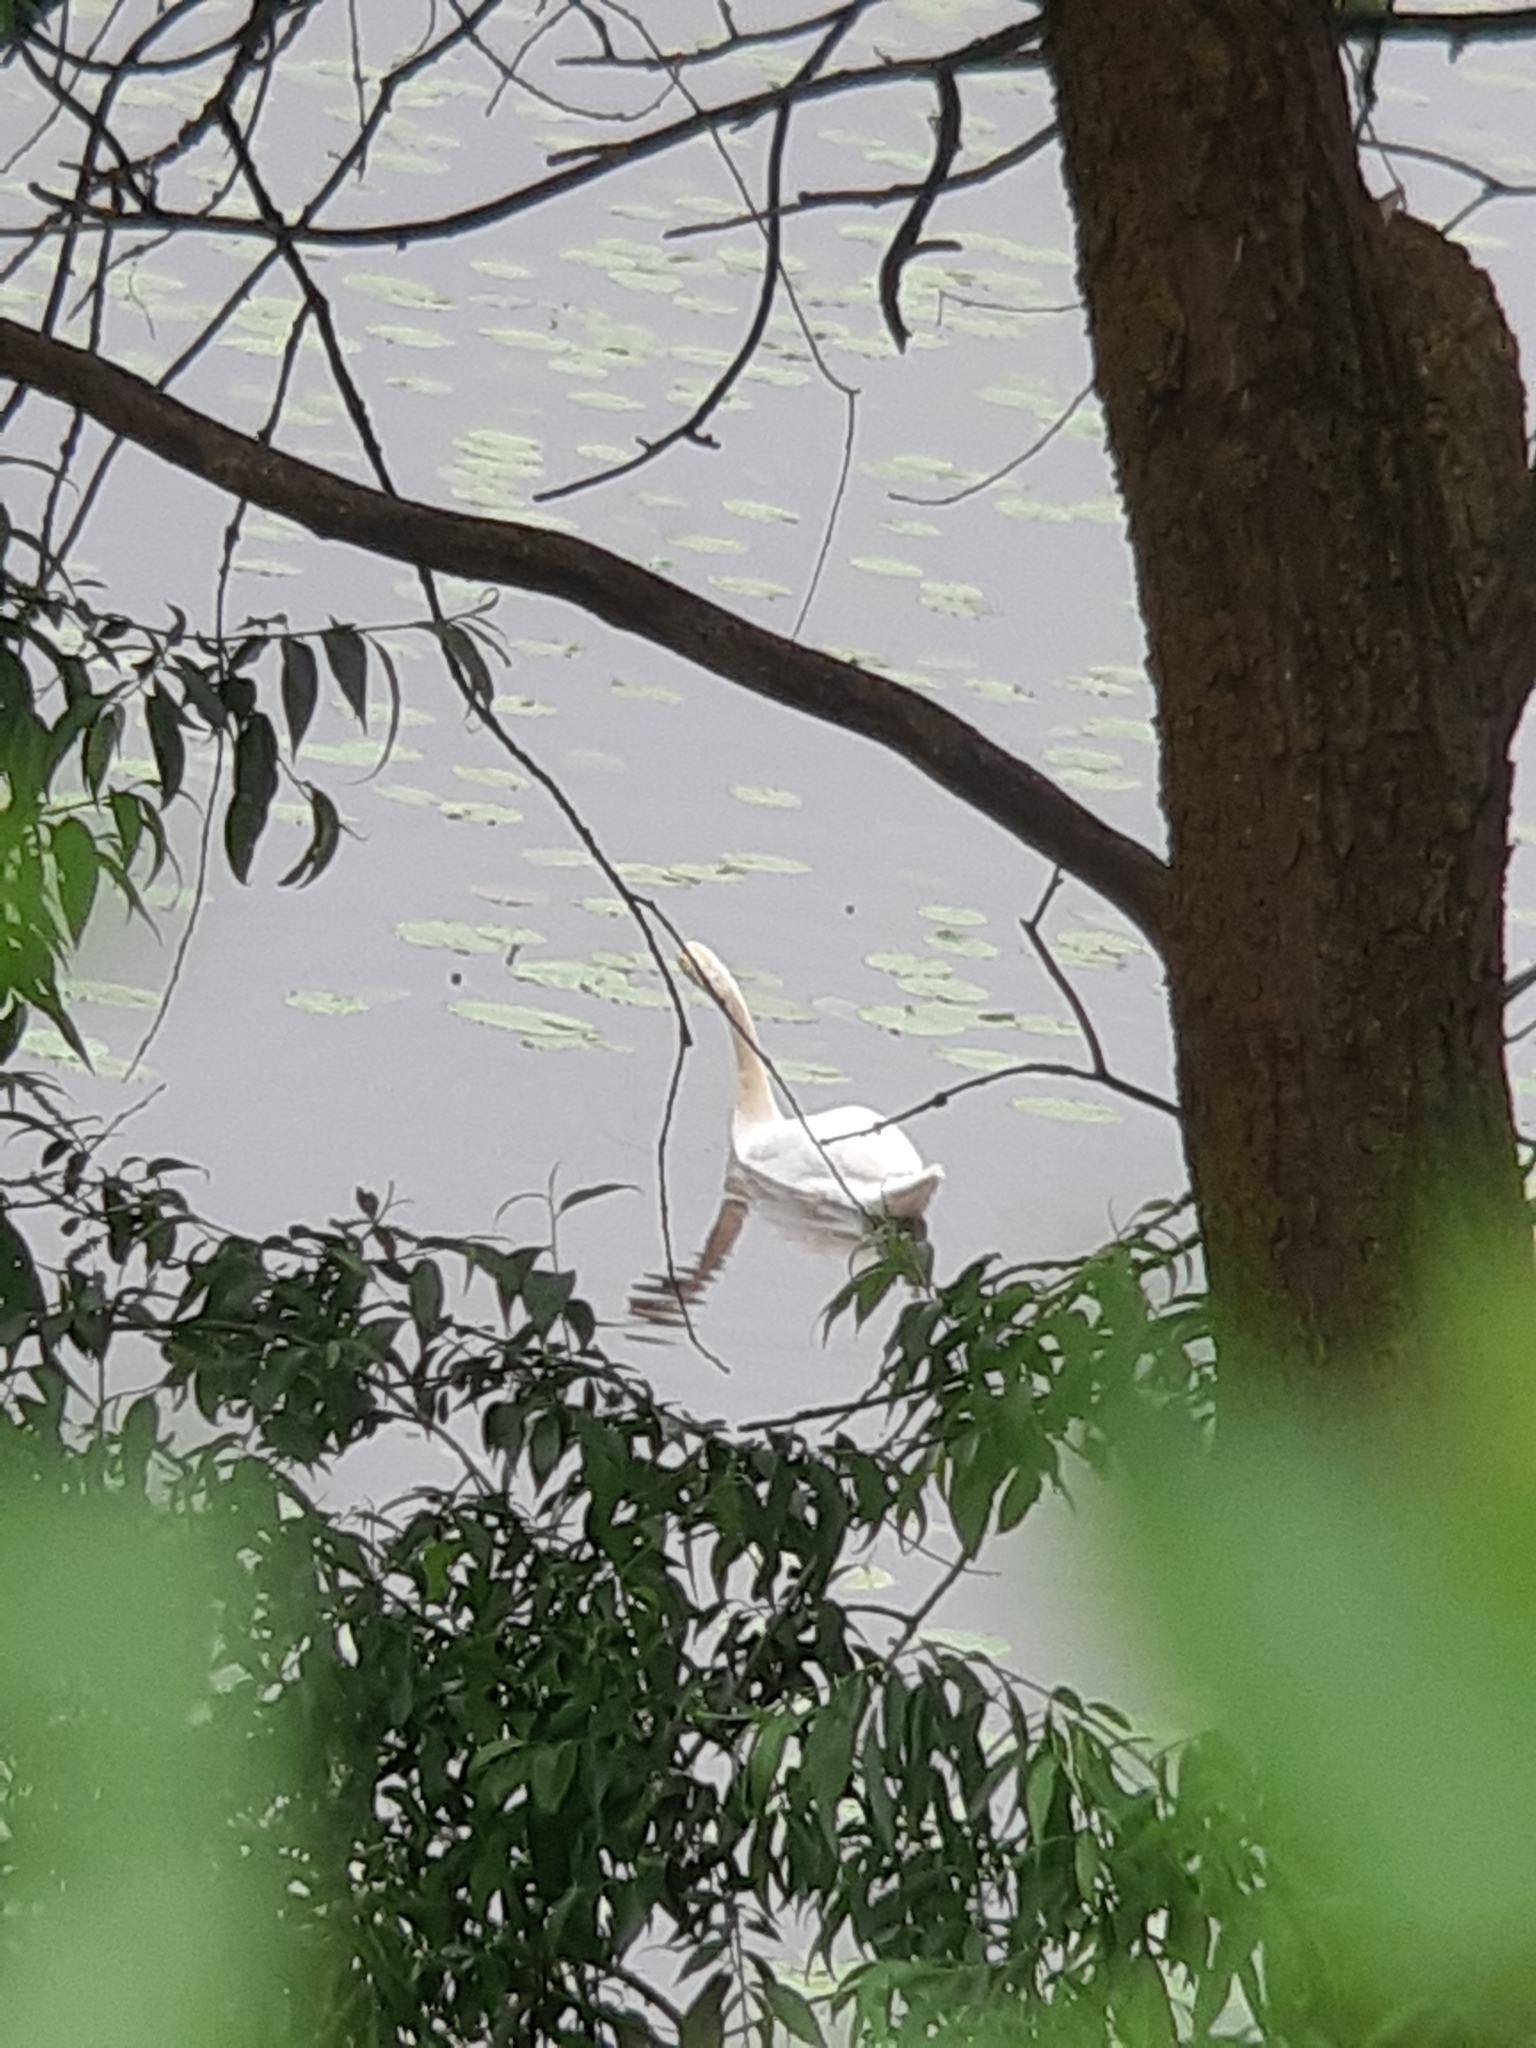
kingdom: Animalia
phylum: Chordata
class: Aves
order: Anseriformes
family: Anatidae
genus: Cygnus
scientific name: Cygnus olor
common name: Mute swan
